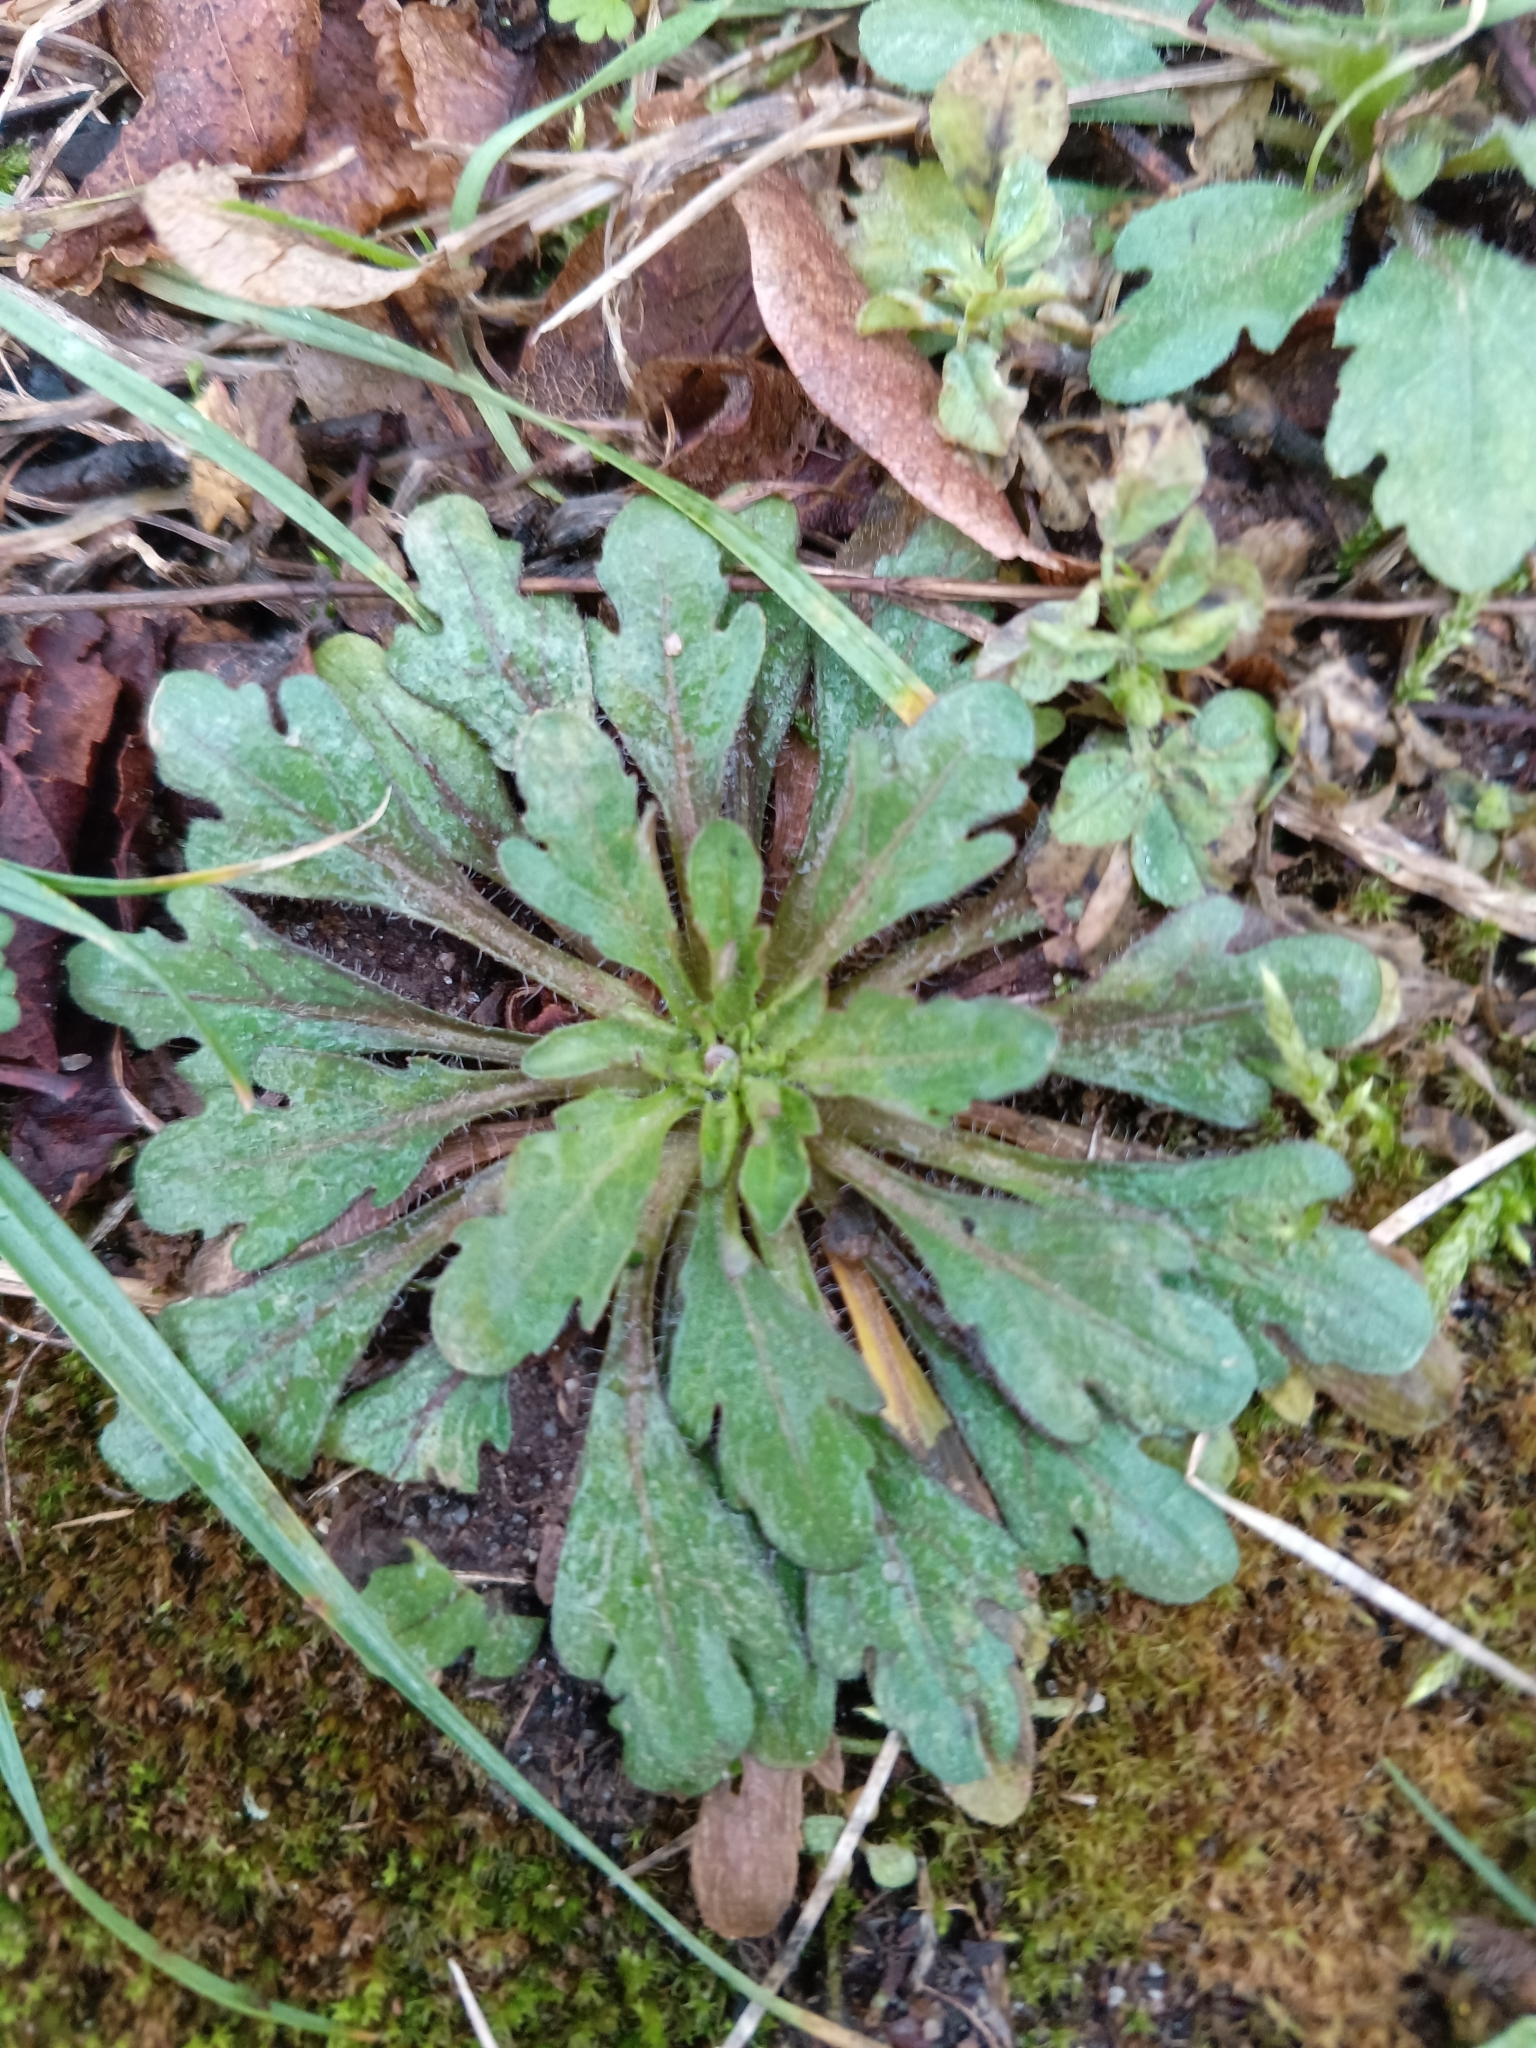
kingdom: Plantae
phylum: Tracheophyta
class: Magnoliopsida
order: Asterales
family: Asteraceae
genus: Erigeron
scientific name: Erigeron canadensis
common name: Canadian fleabane
